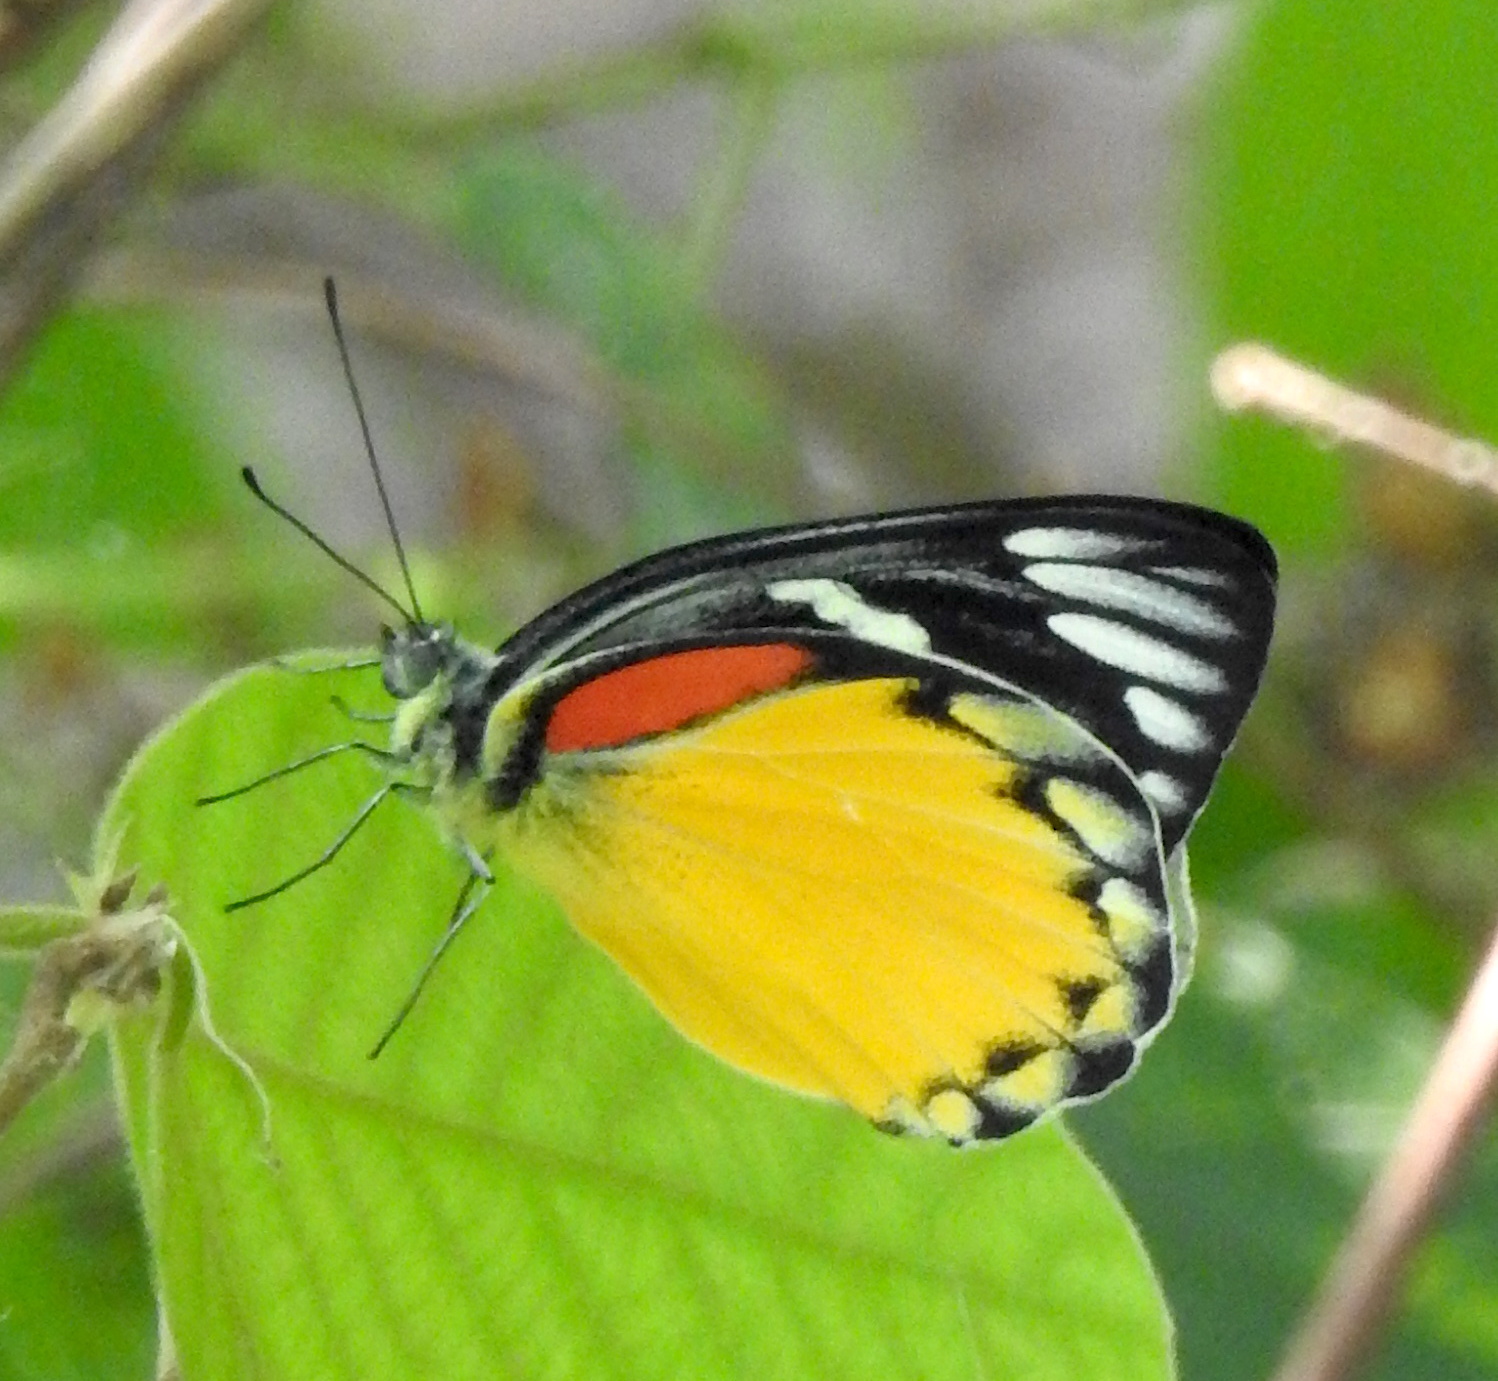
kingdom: Animalia
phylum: Arthropoda
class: Insecta
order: Lepidoptera
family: Pieridae
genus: Delias
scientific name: Delias descombesi
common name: Red-spot jezebel
